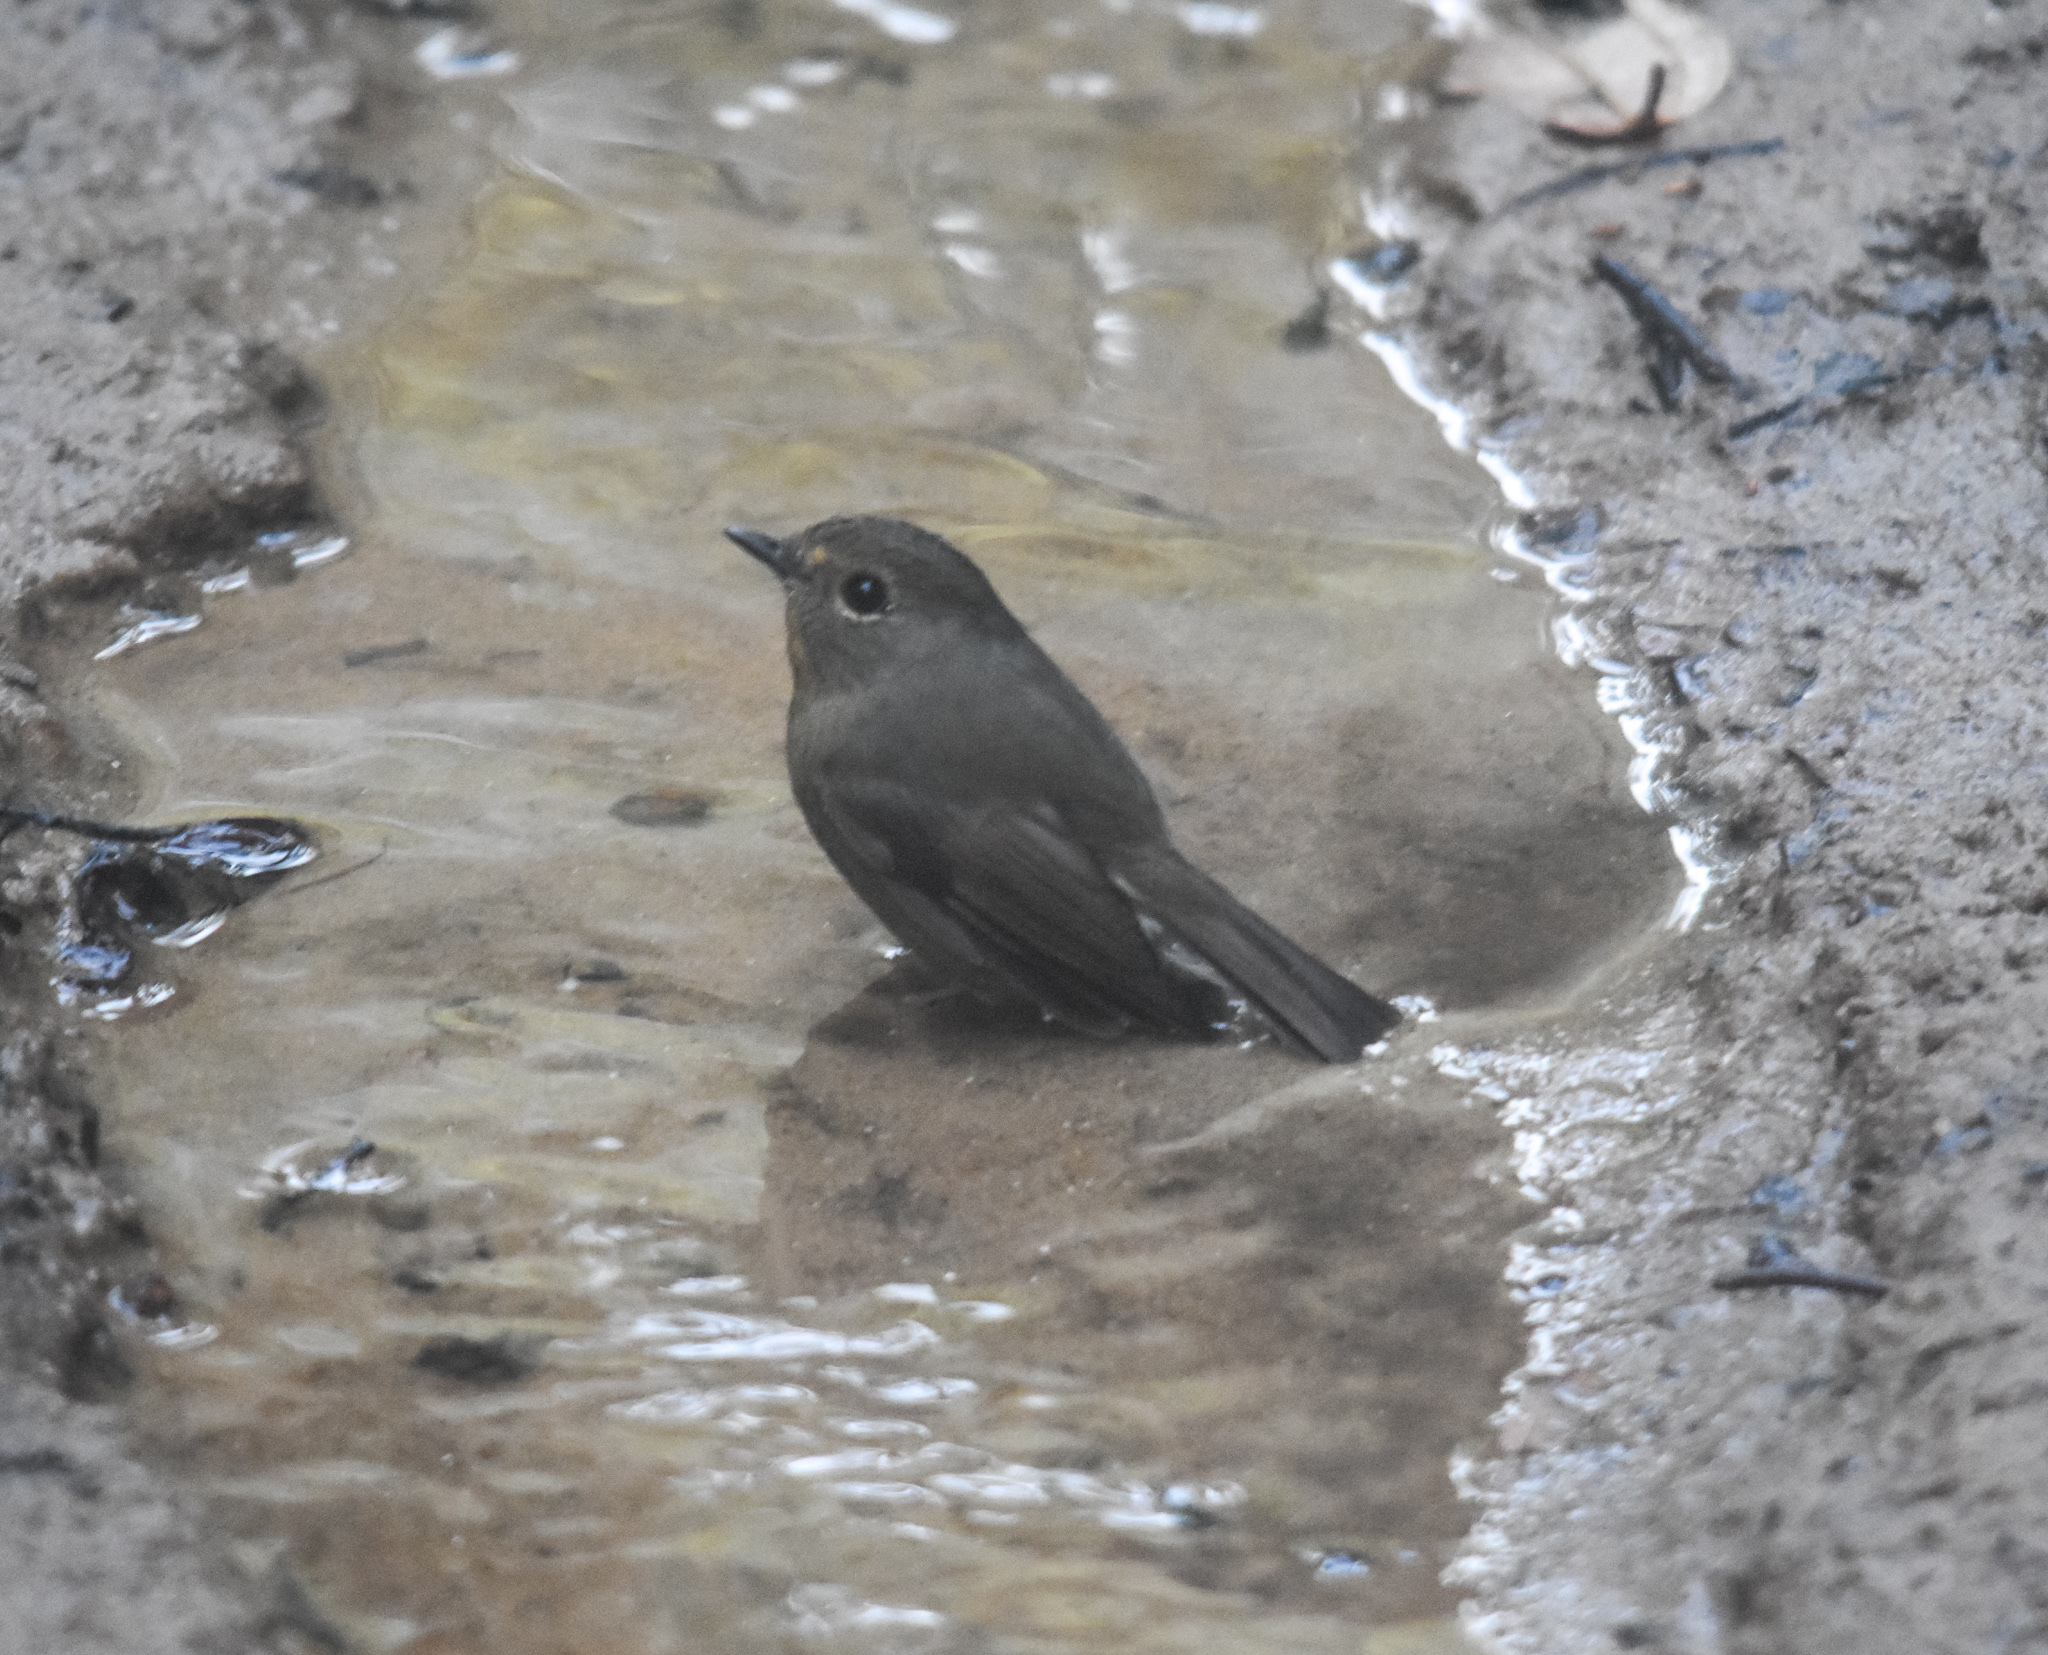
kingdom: Animalia
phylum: Chordata
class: Aves
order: Passeriformes
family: Muscicapidae
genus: Ficedula
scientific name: Ficedula hyperythra
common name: Snowy-browed flycatcher
